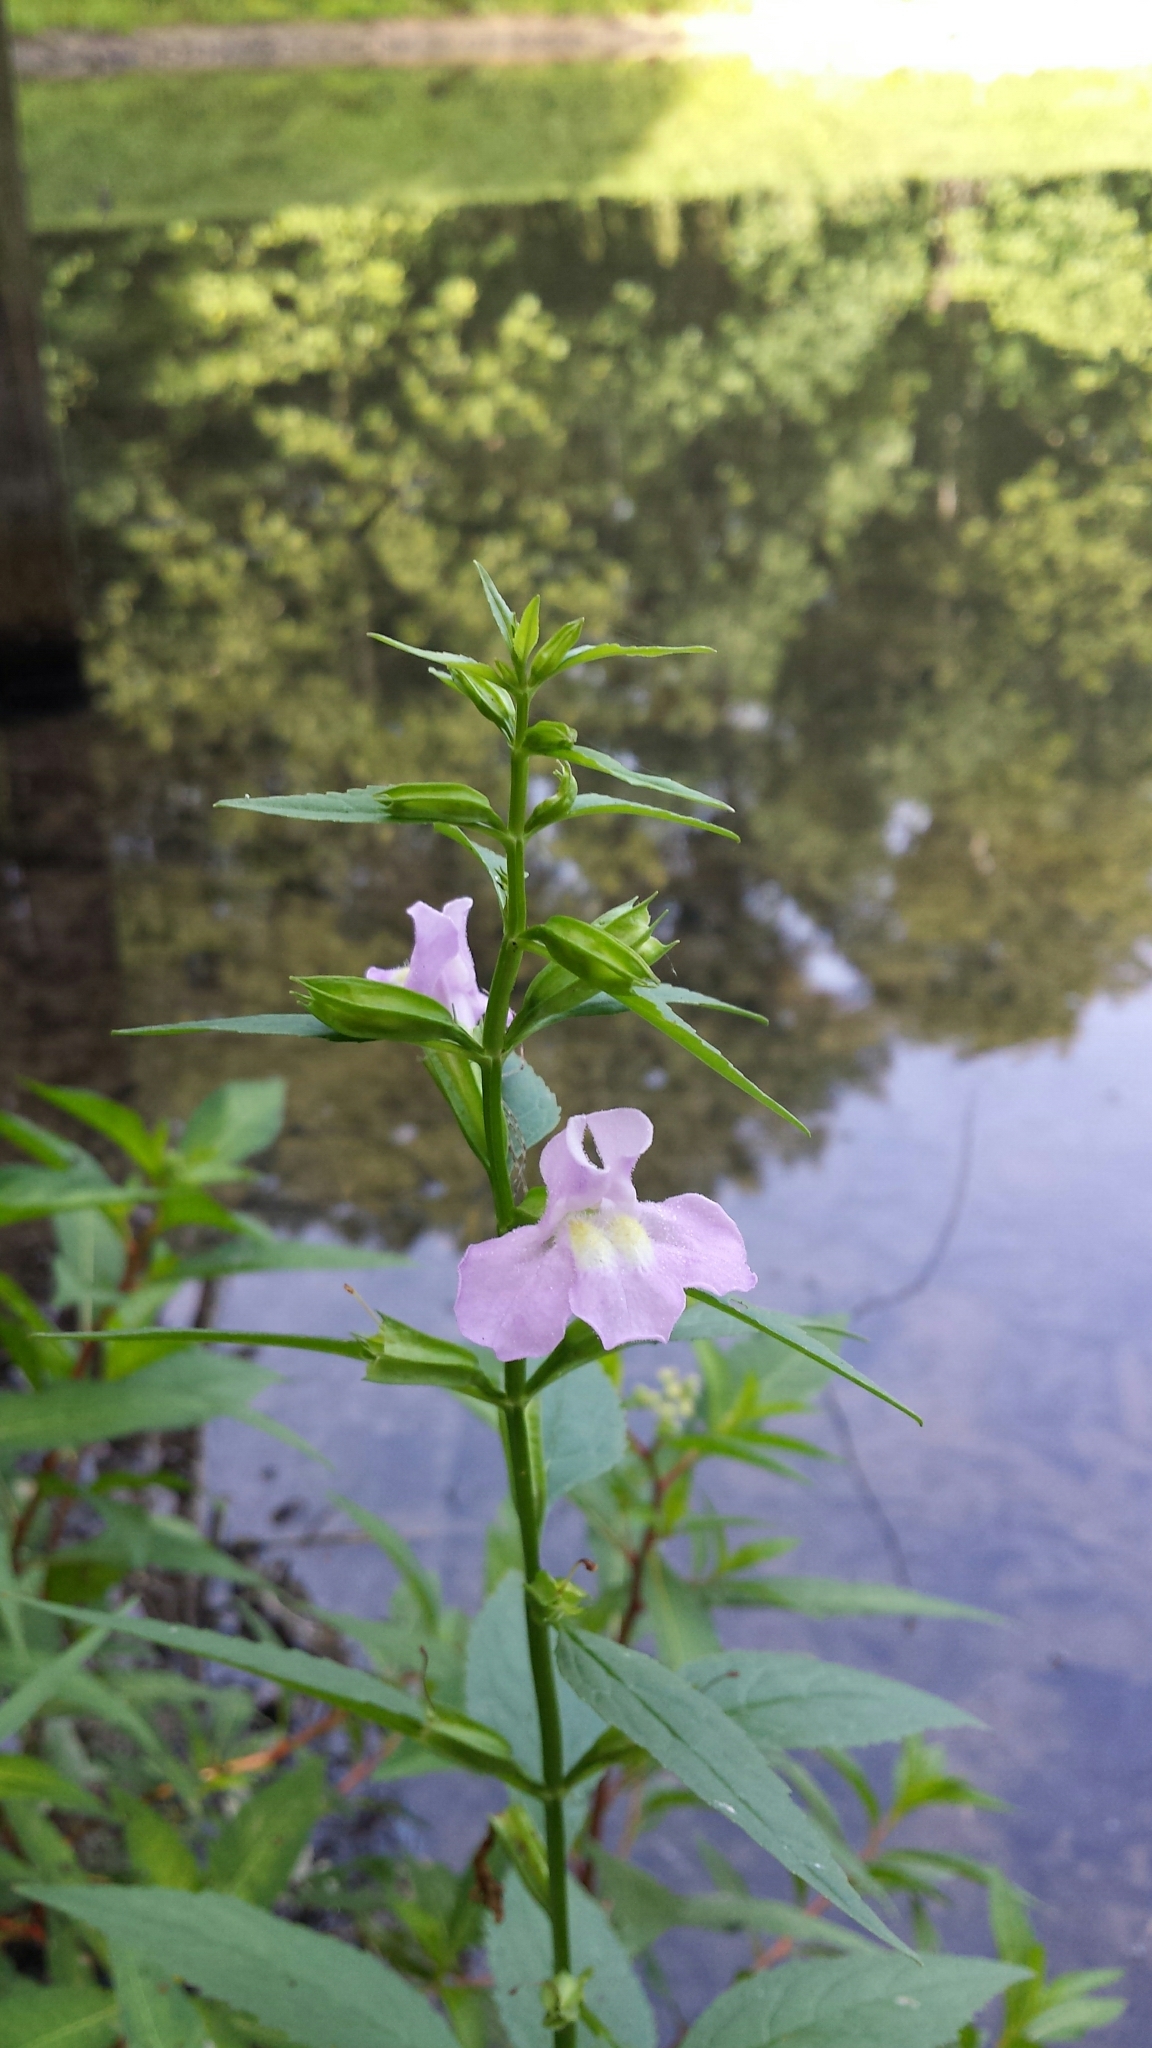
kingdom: Plantae
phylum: Tracheophyta
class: Magnoliopsida
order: Lamiales
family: Phrymaceae
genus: Mimulus
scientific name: Mimulus alatus
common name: Sharp-wing monkey-flower
